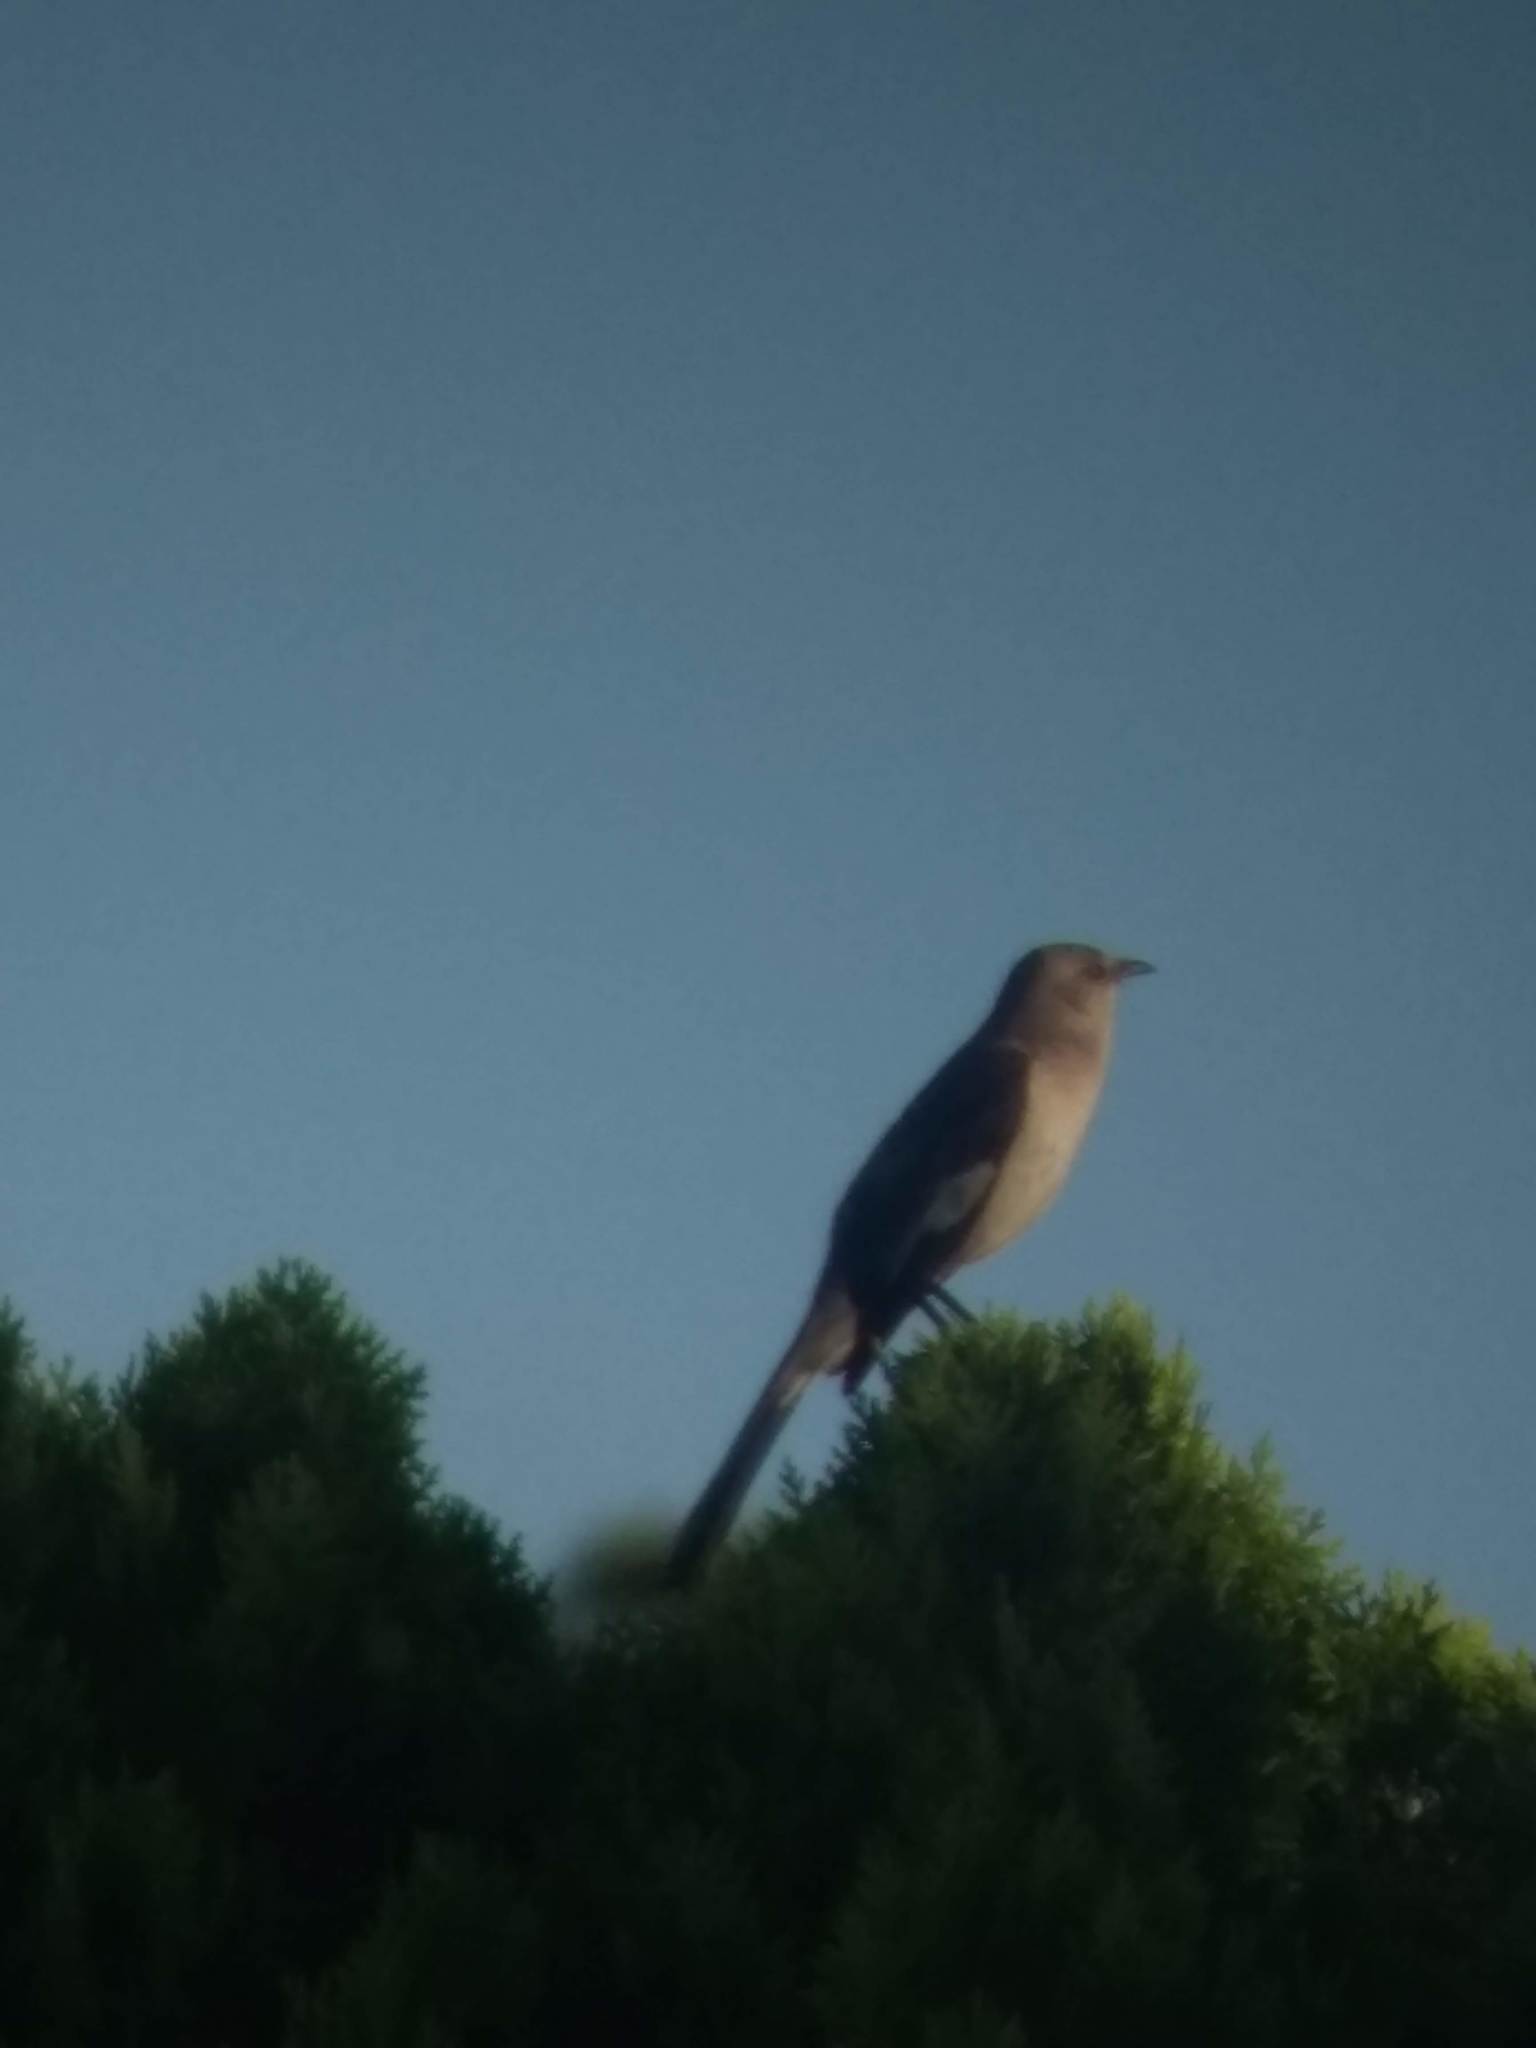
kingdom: Animalia
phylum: Chordata
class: Aves
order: Passeriformes
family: Mimidae
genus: Mimus
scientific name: Mimus polyglottos
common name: Northern mockingbird
